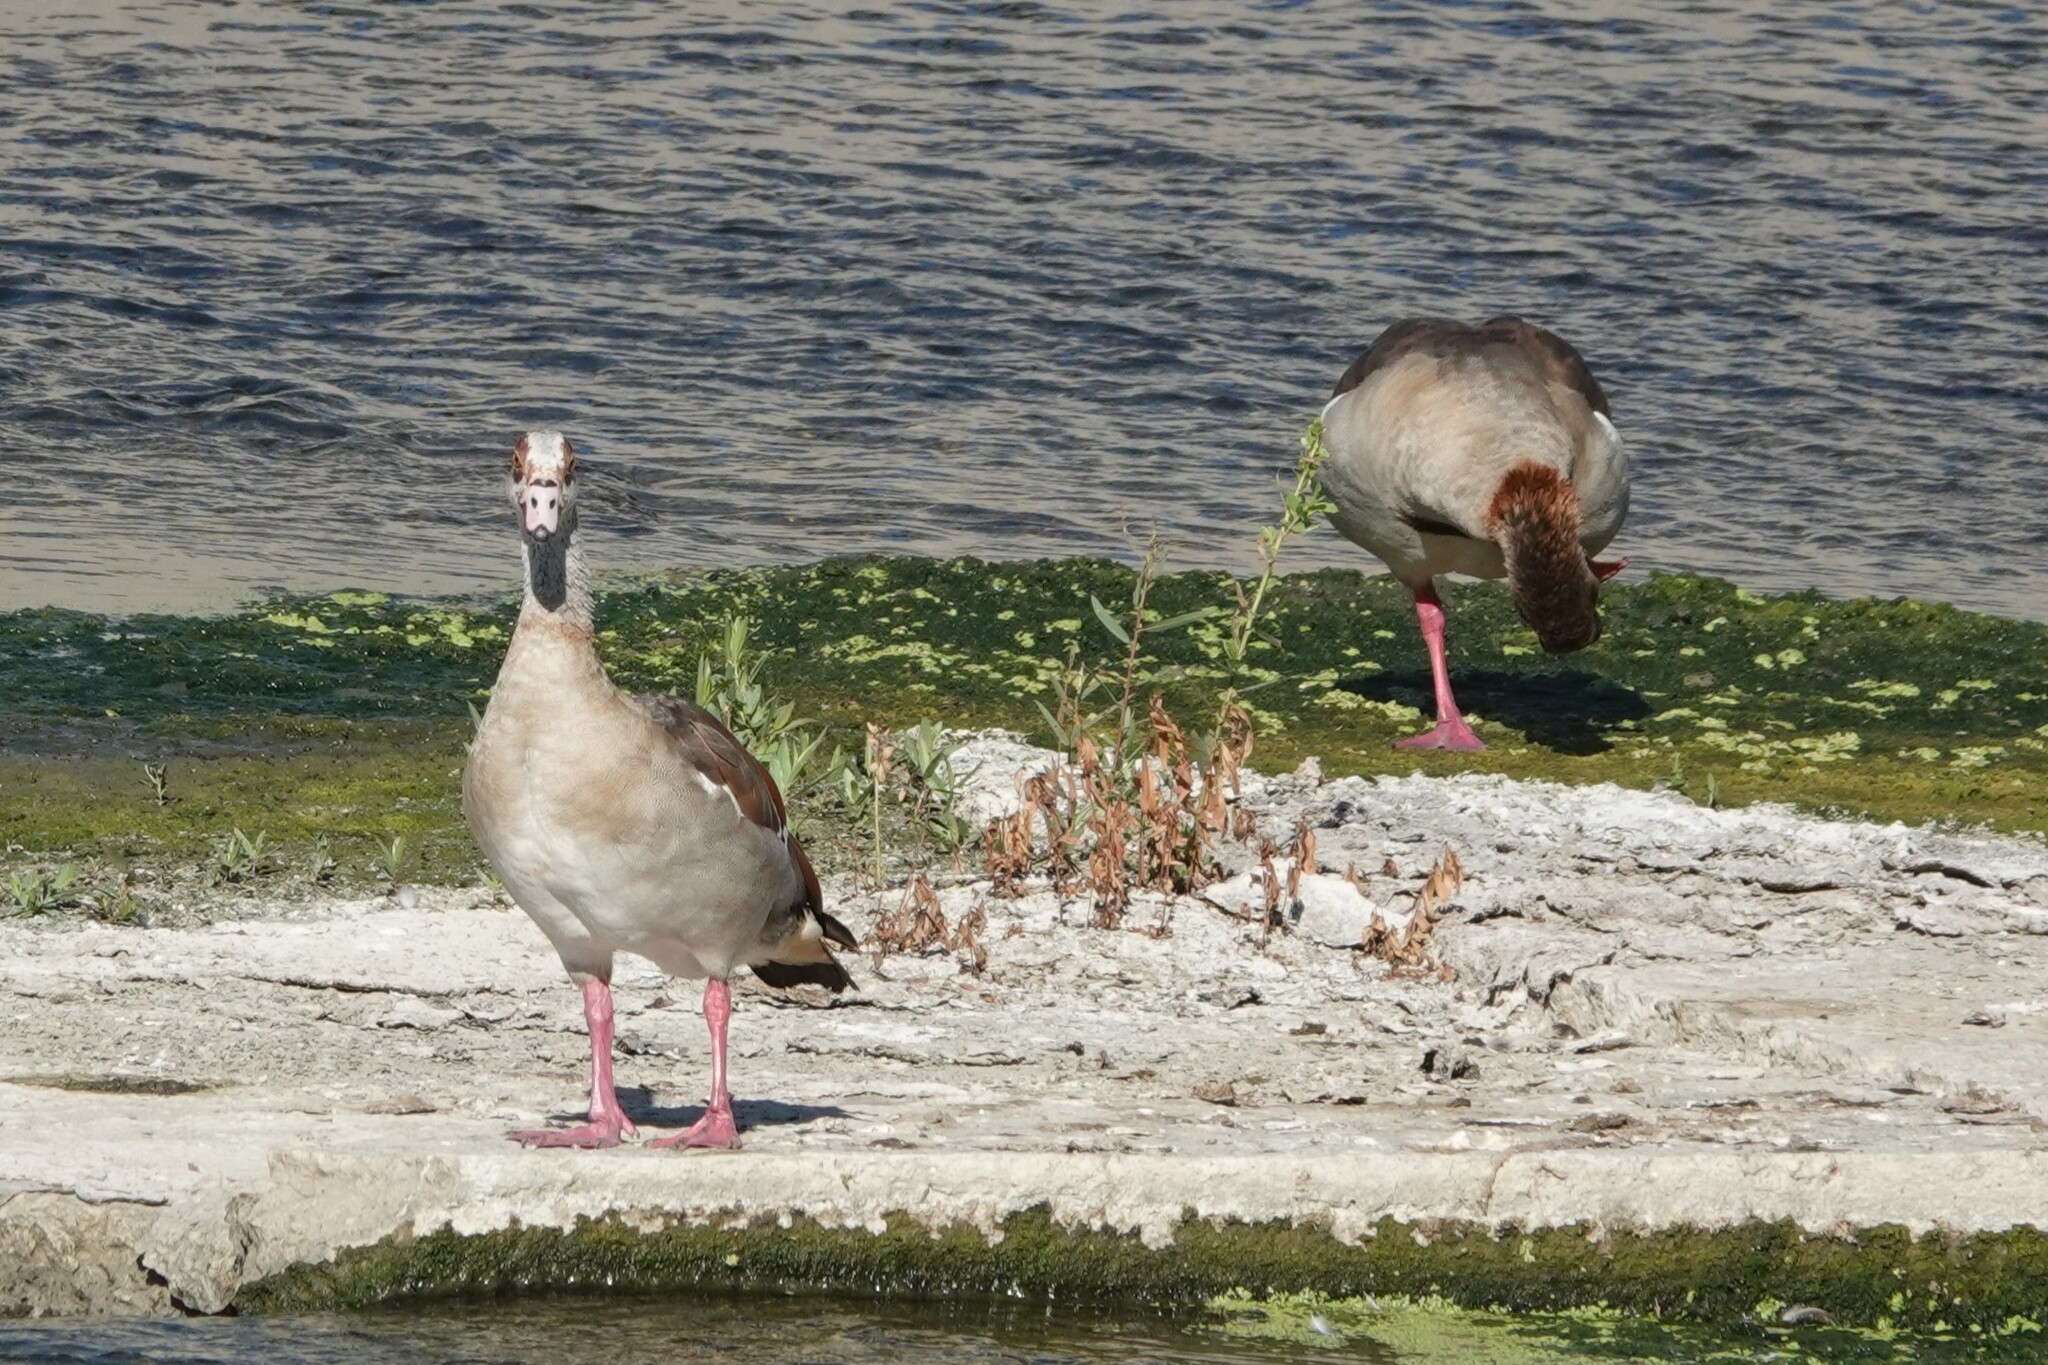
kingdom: Animalia
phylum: Chordata
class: Aves
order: Anseriformes
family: Anatidae
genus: Alopochen
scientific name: Alopochen aegyptiaca
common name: Egyptian goose
